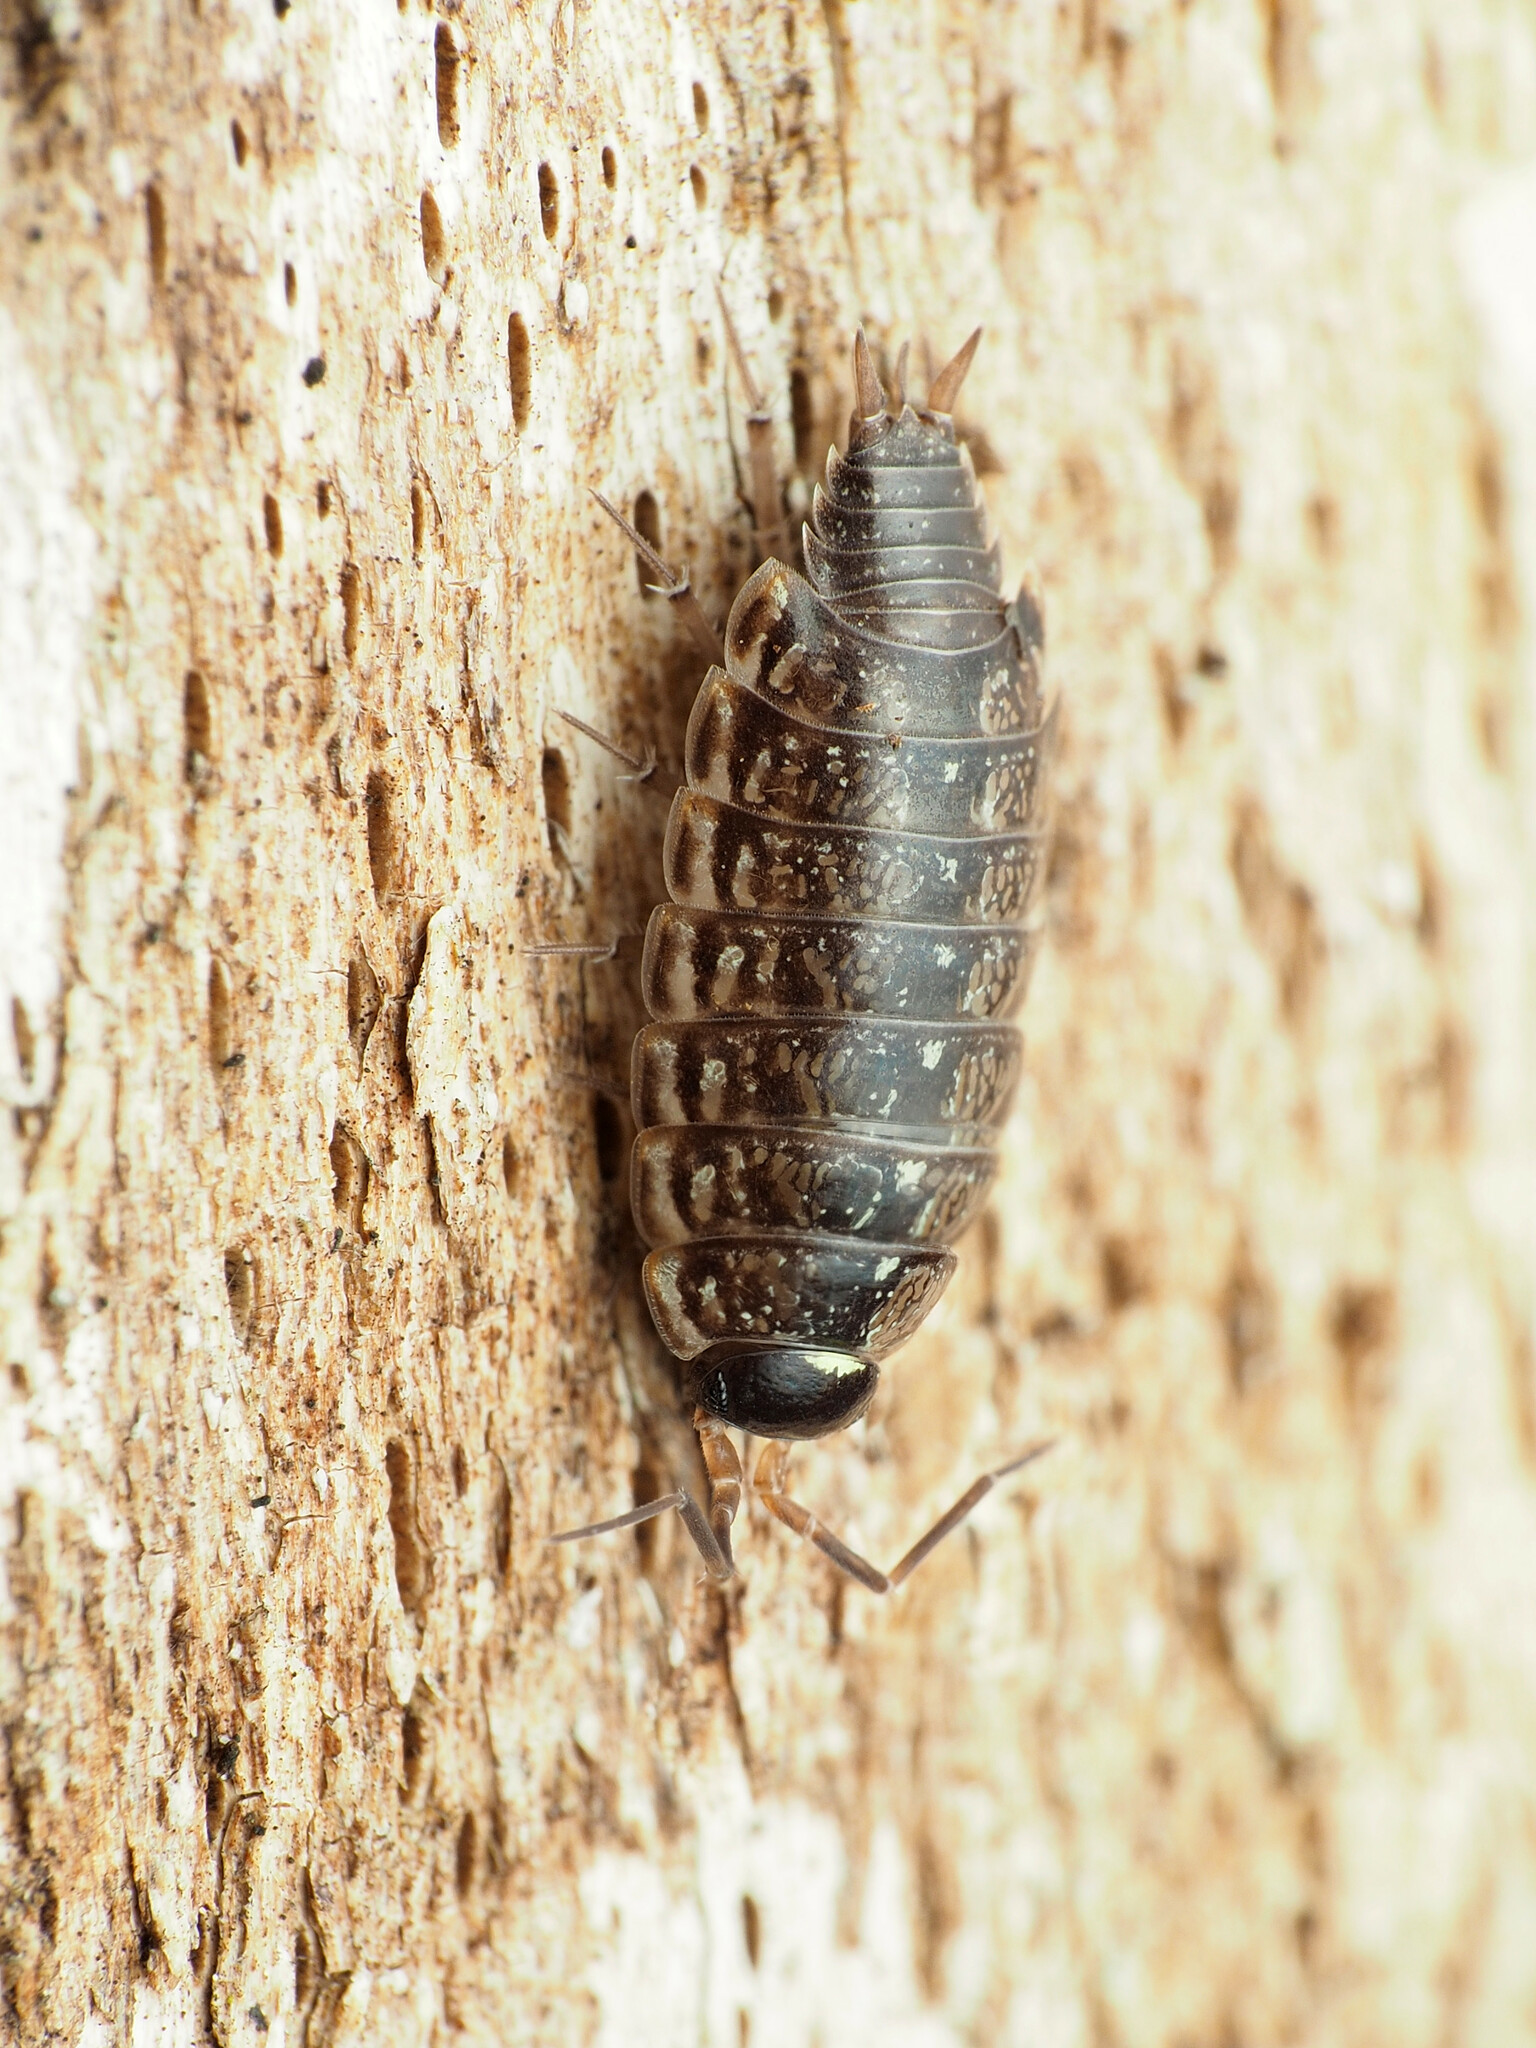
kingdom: Animalia
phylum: Arthropoda
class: Malacostraca
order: Isopoda
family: Philosciidae
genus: Philoscia
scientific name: Philoscia muscorum
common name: Common striped woodlouse
